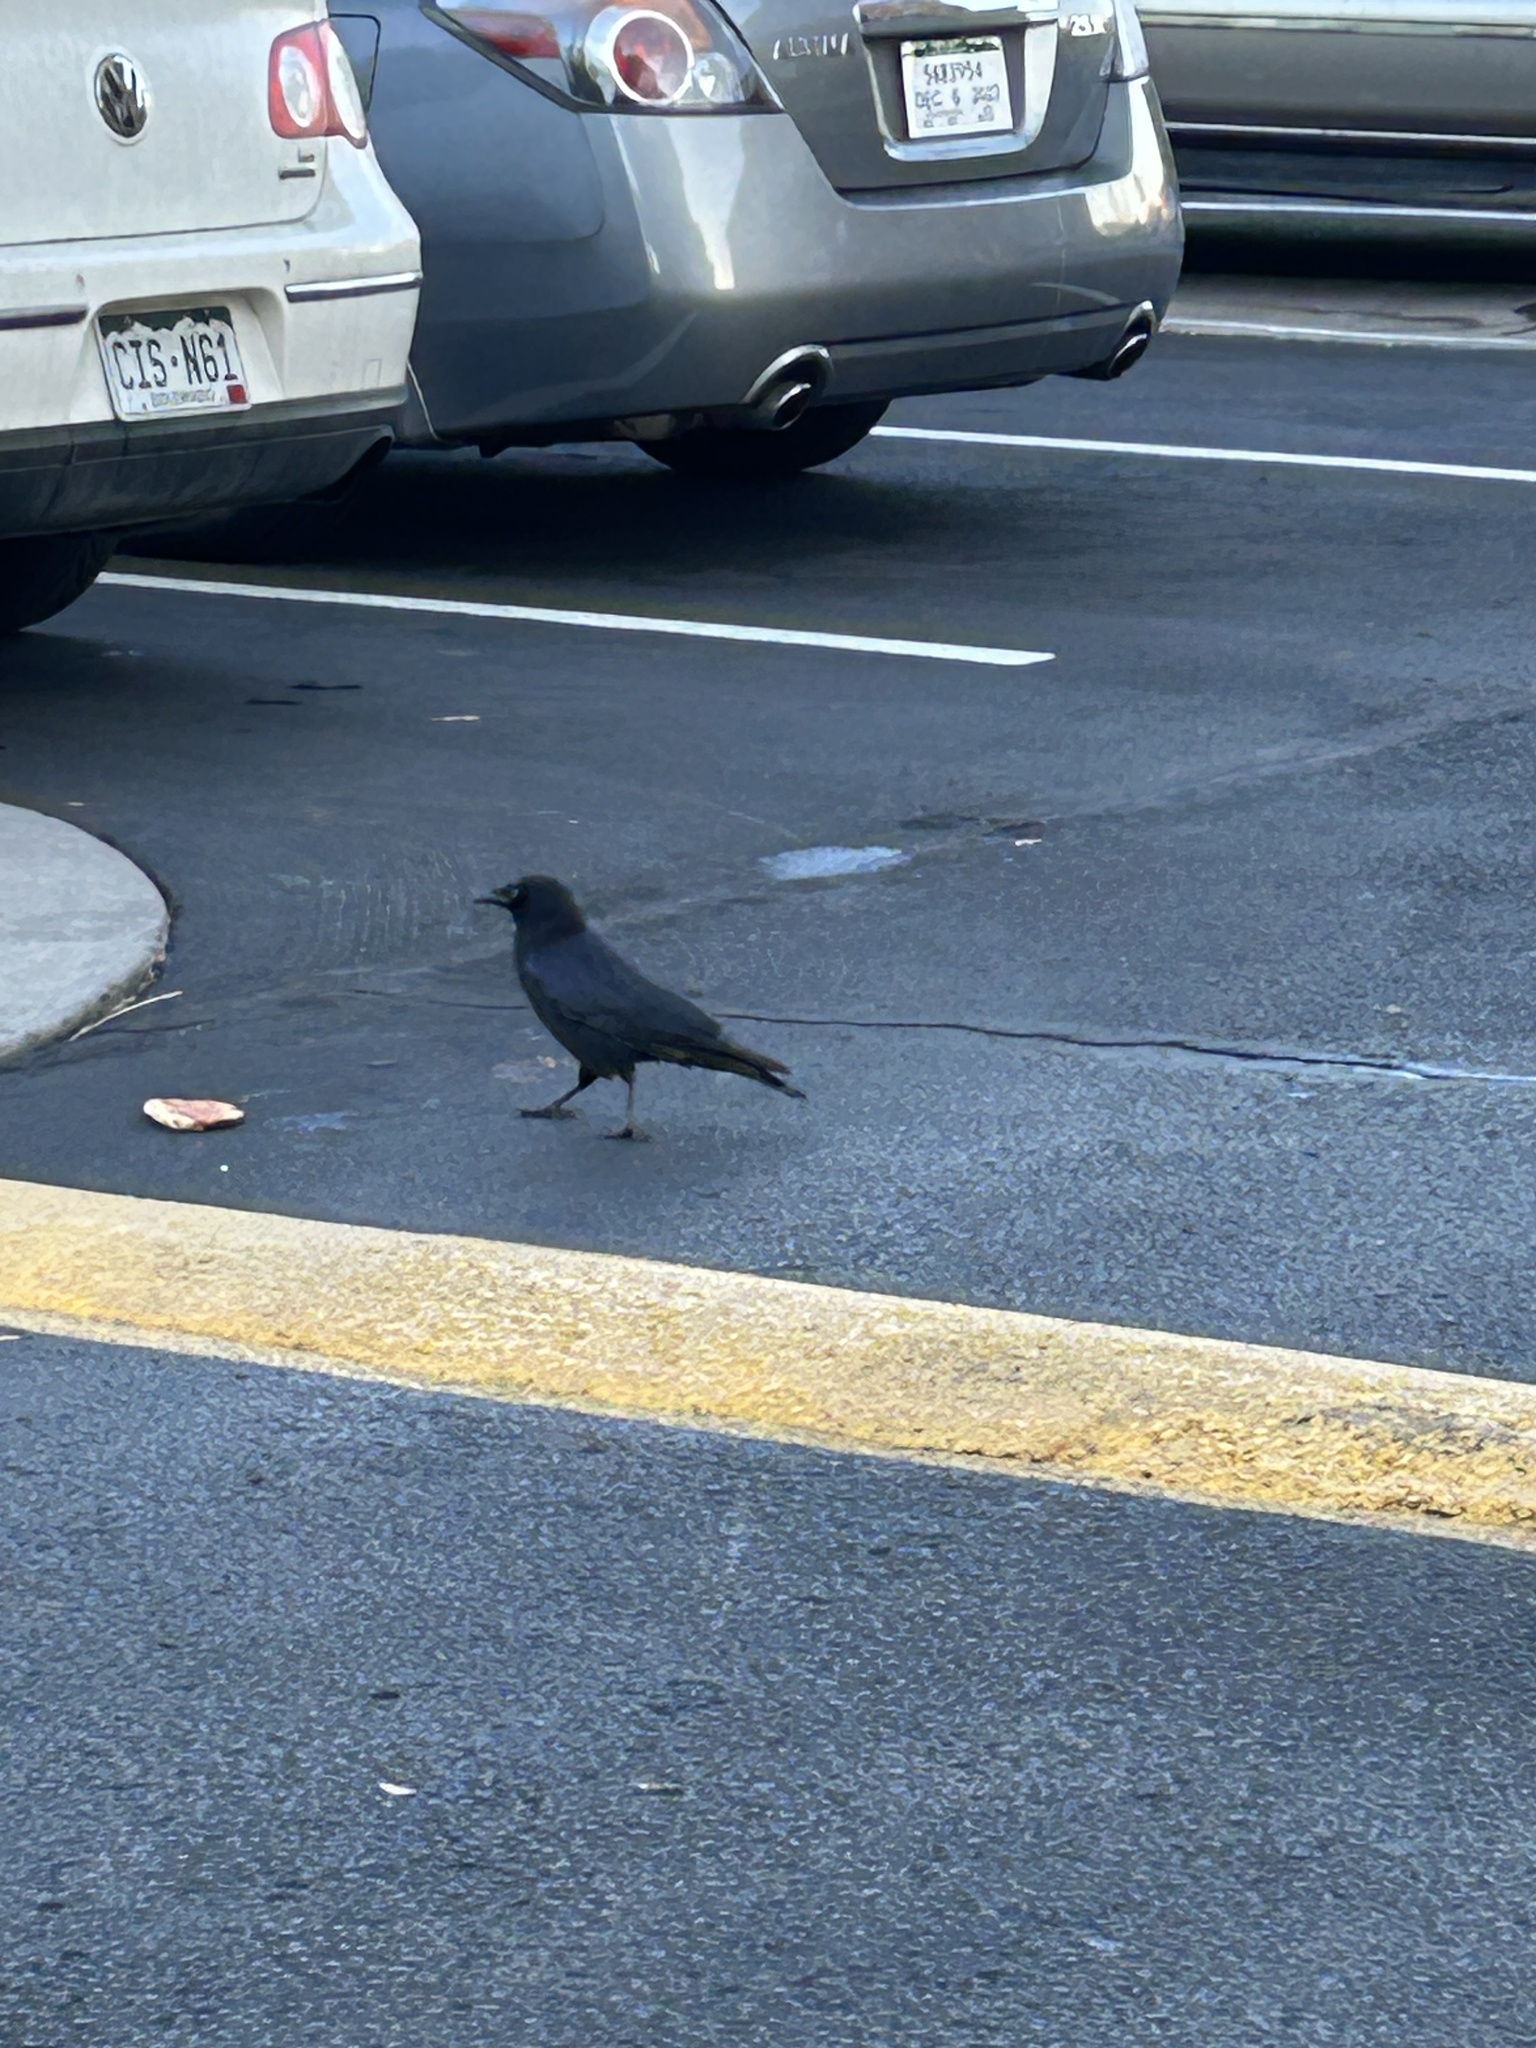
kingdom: Animalia
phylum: Chordata
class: Aves
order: Passeriformes
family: Corvidae
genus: Corvus
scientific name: Corvus brachyrhynchos
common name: American crow
